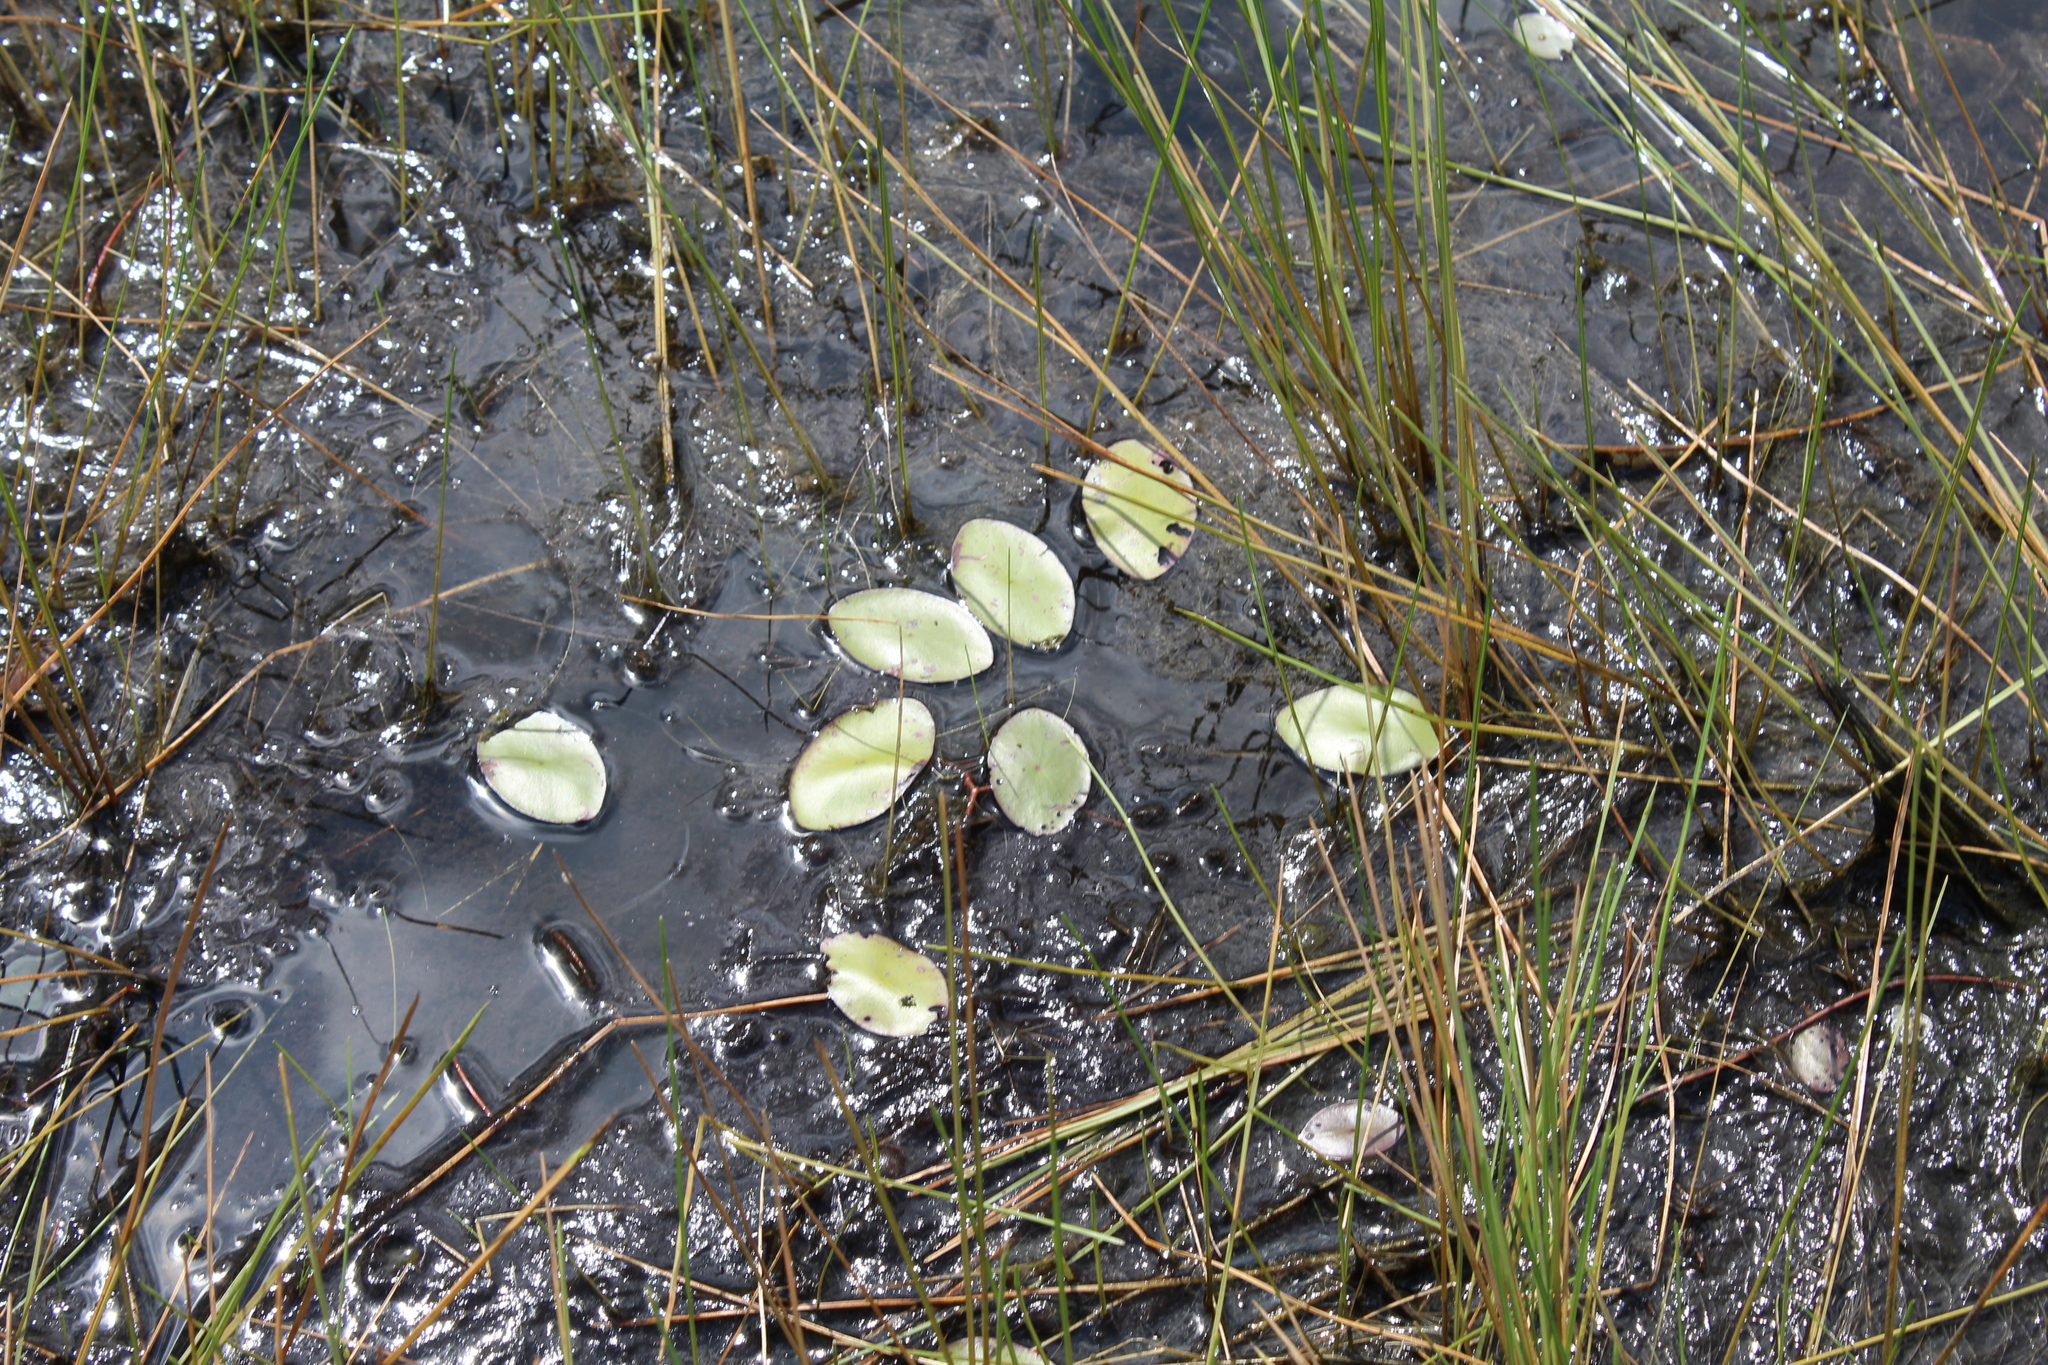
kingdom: Plantae
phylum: Tracheophyta
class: Magnoliopsida
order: Nymphaeales
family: Cabombaceae
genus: Brasenia
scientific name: Brasenia schreberi
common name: Water-shield
